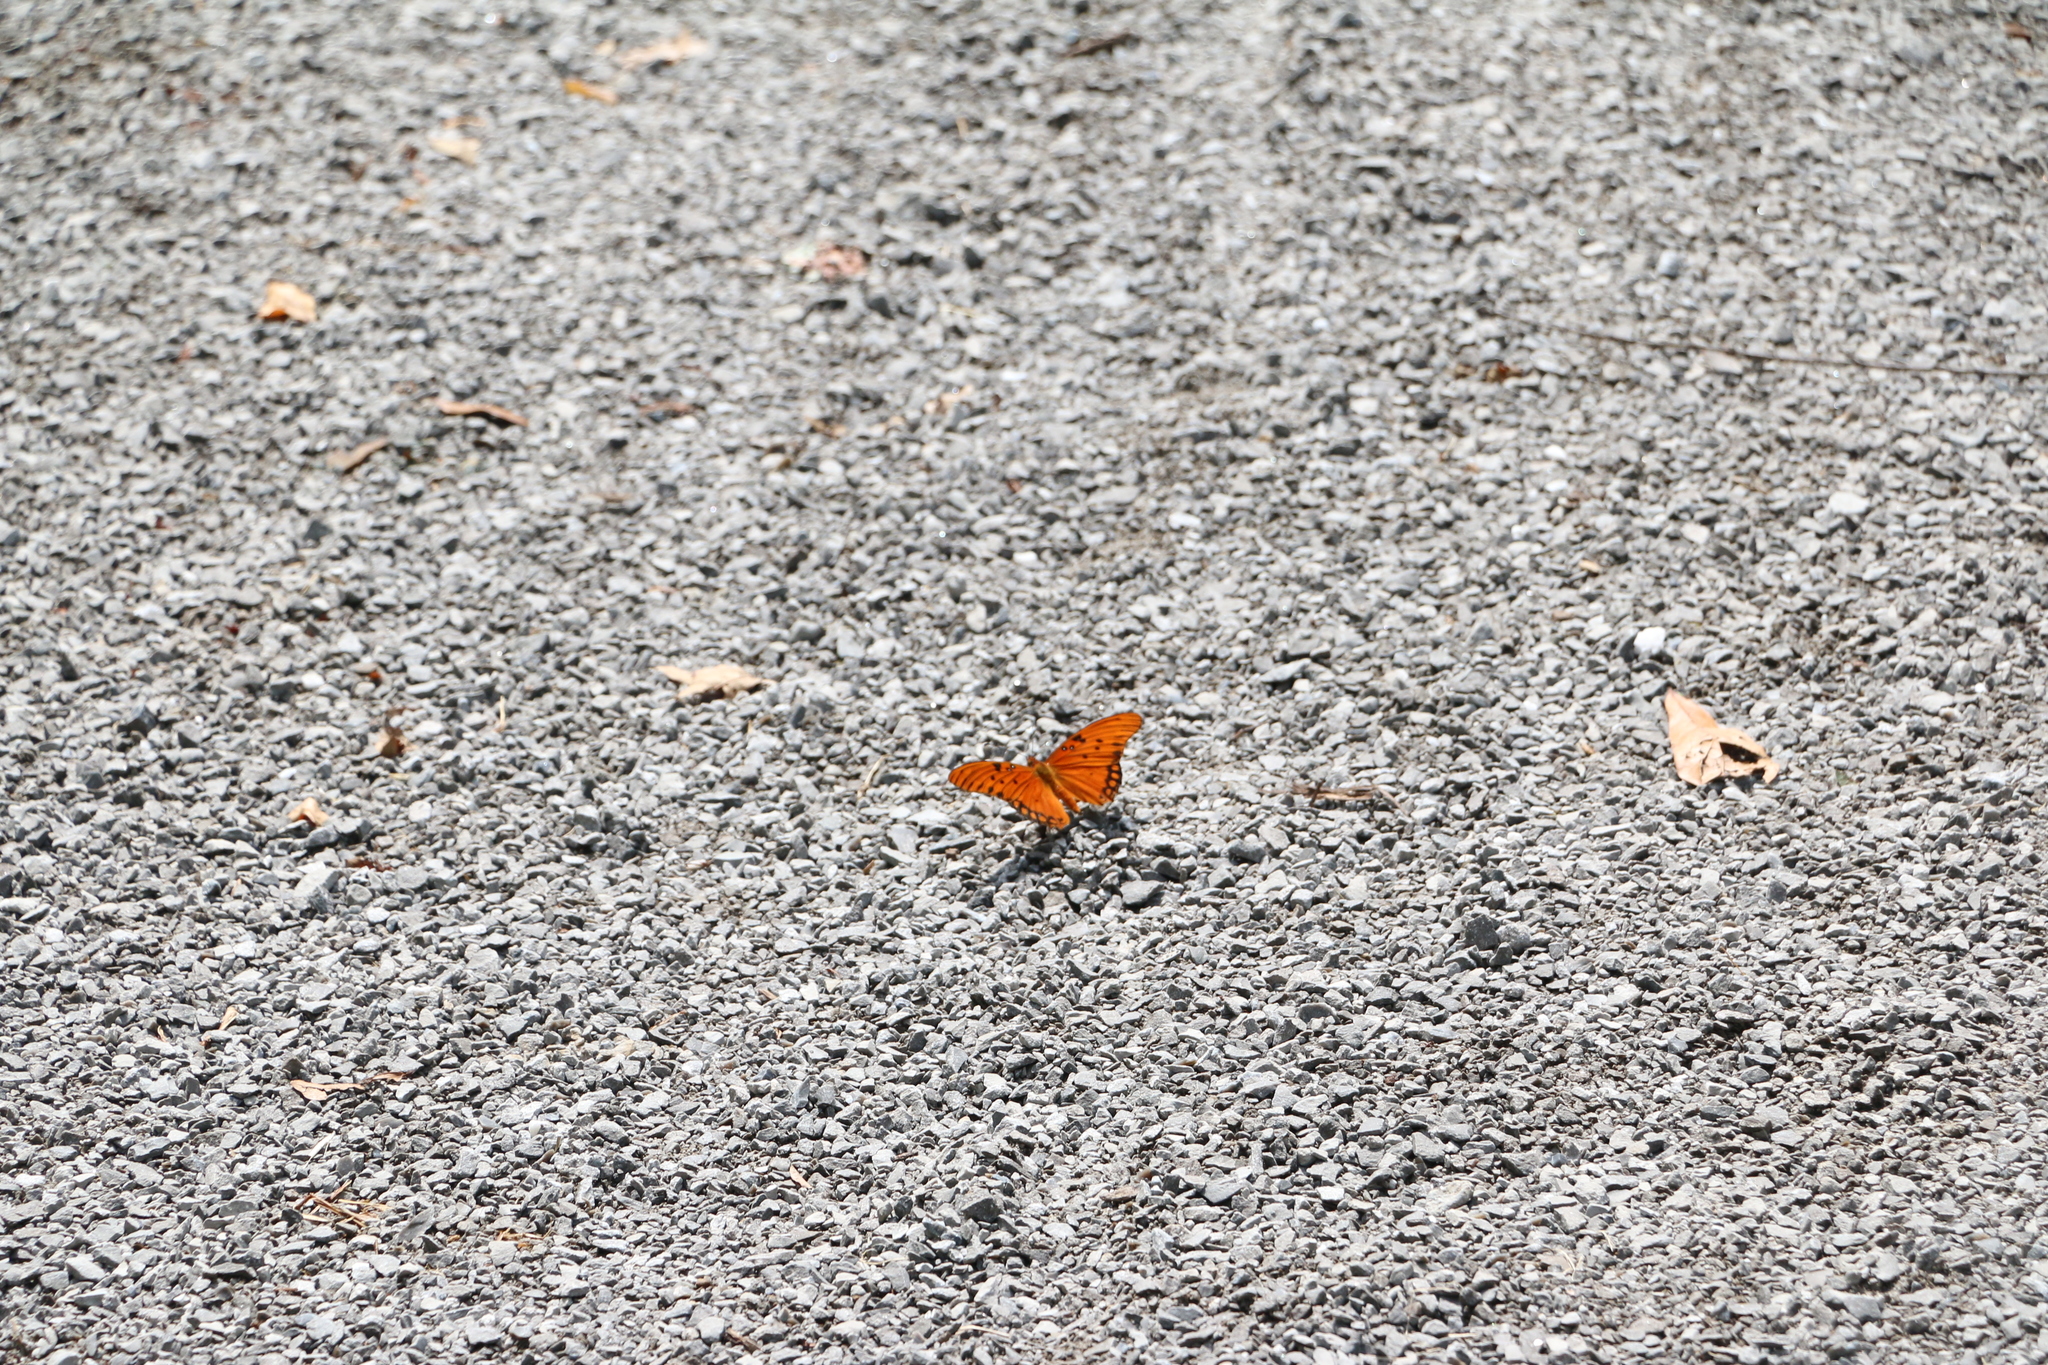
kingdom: Animalia
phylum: Arthropoda
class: Insecta
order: Lepidoptera
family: Nymphalidae
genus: Dione
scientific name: Dione vanillae
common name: Gulf fritillary
